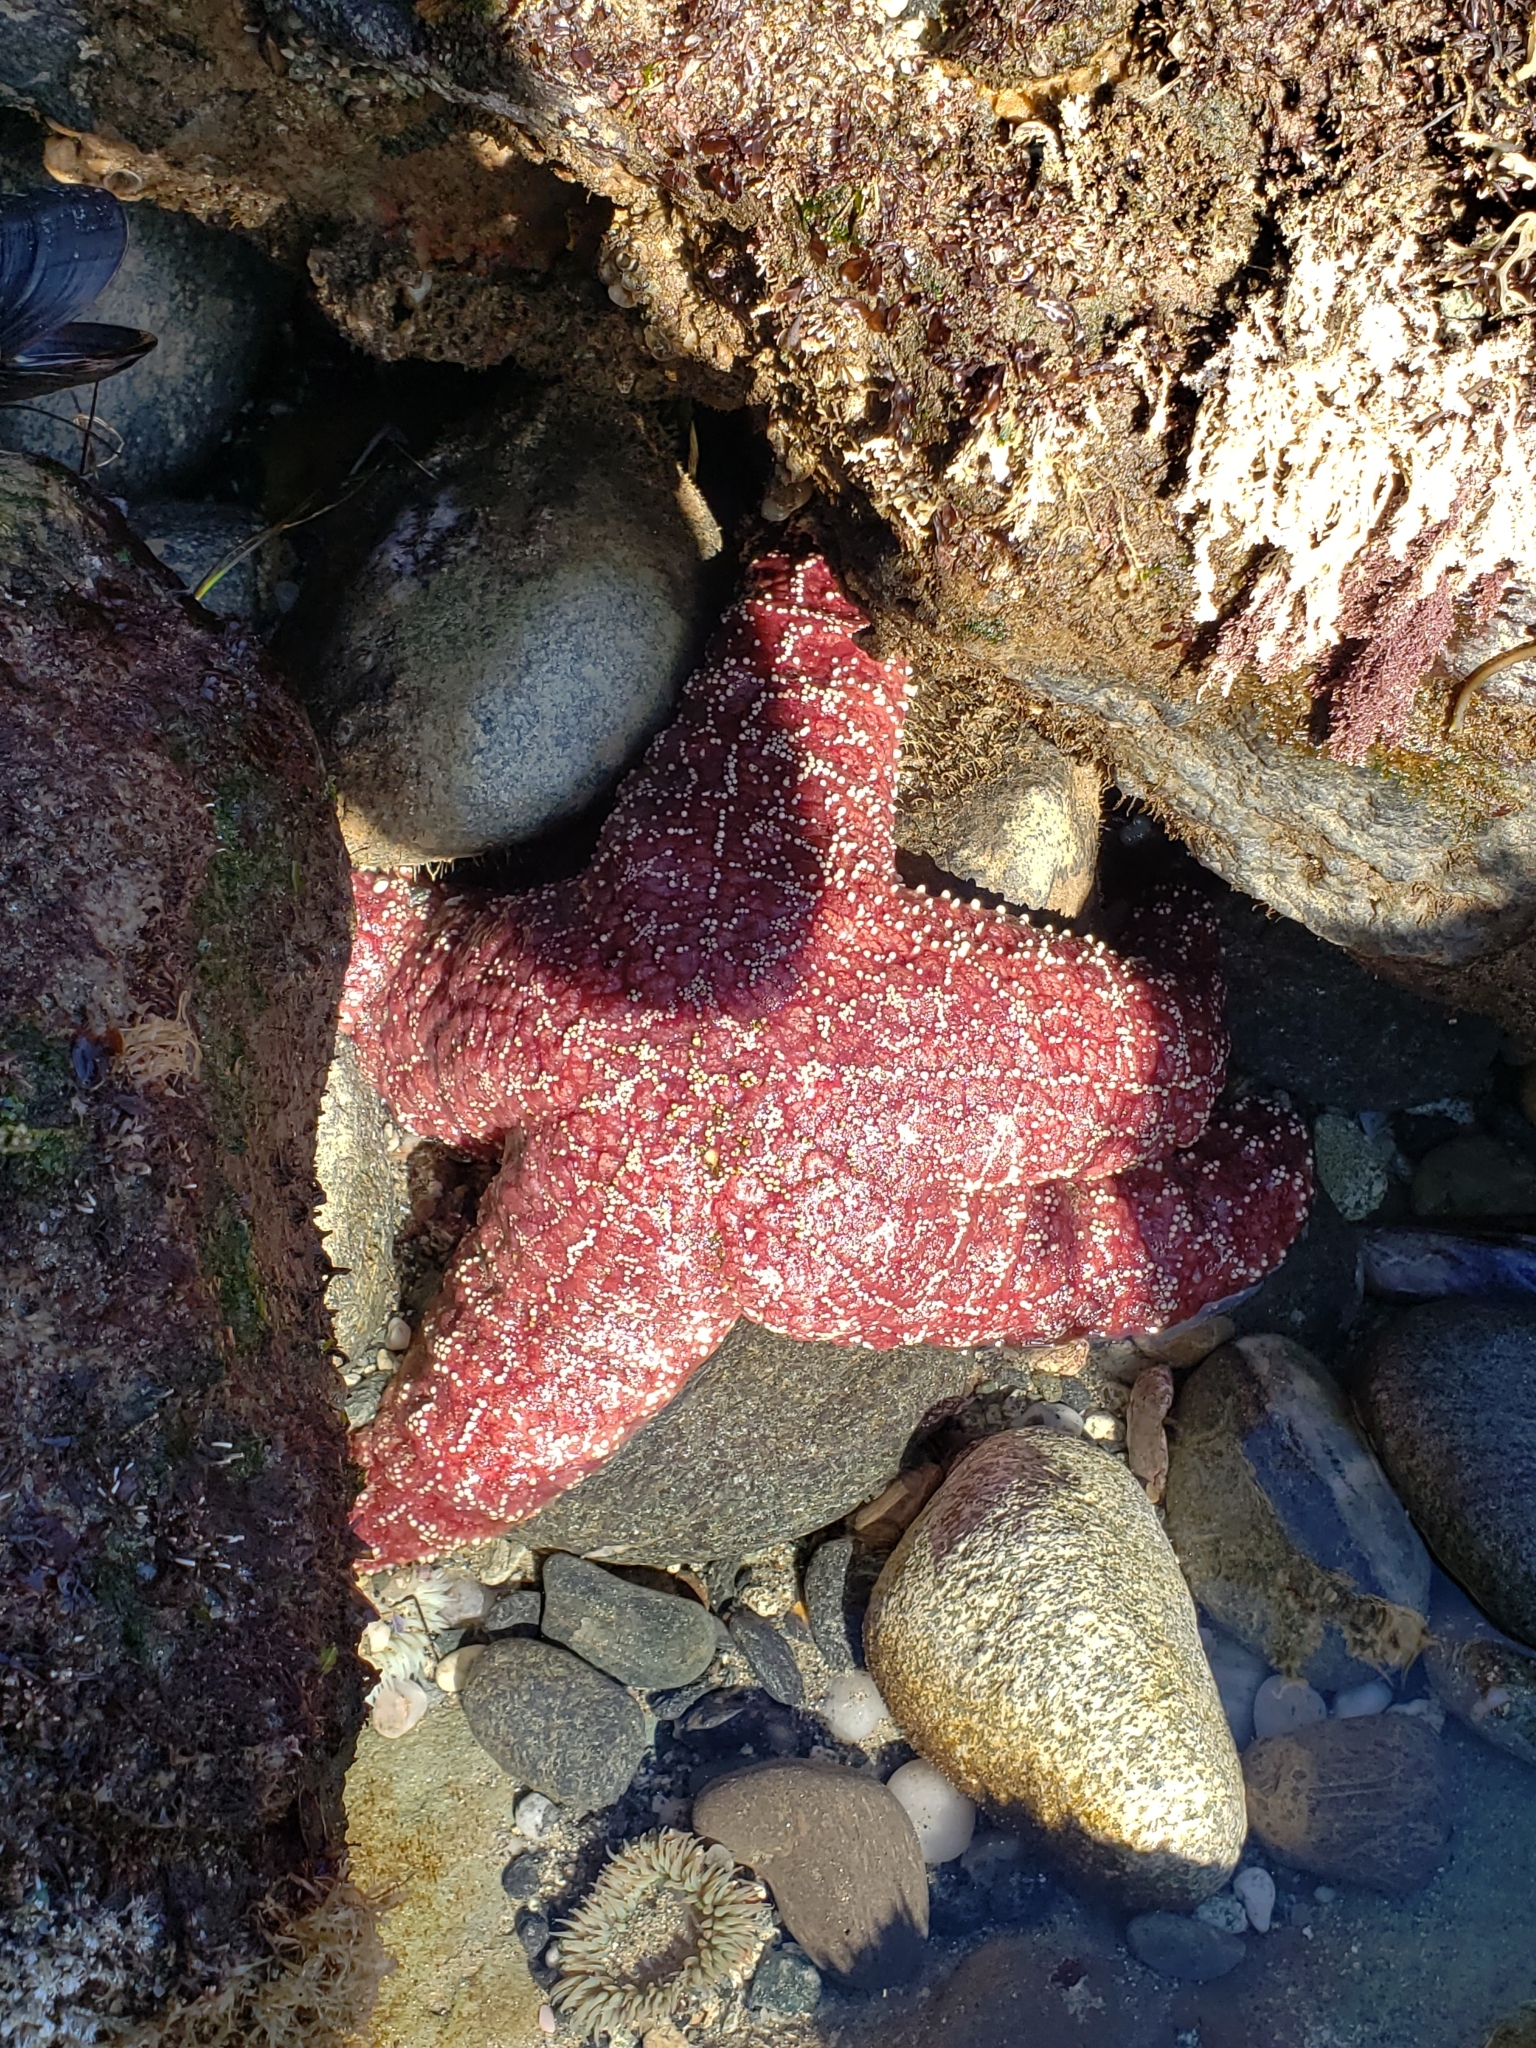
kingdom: Animalia
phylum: Echinodermata
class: Asteroidea
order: Forcipulatida
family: Asteriidae
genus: Pisaster
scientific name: Pisaster ochraceus
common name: Ochre stars
